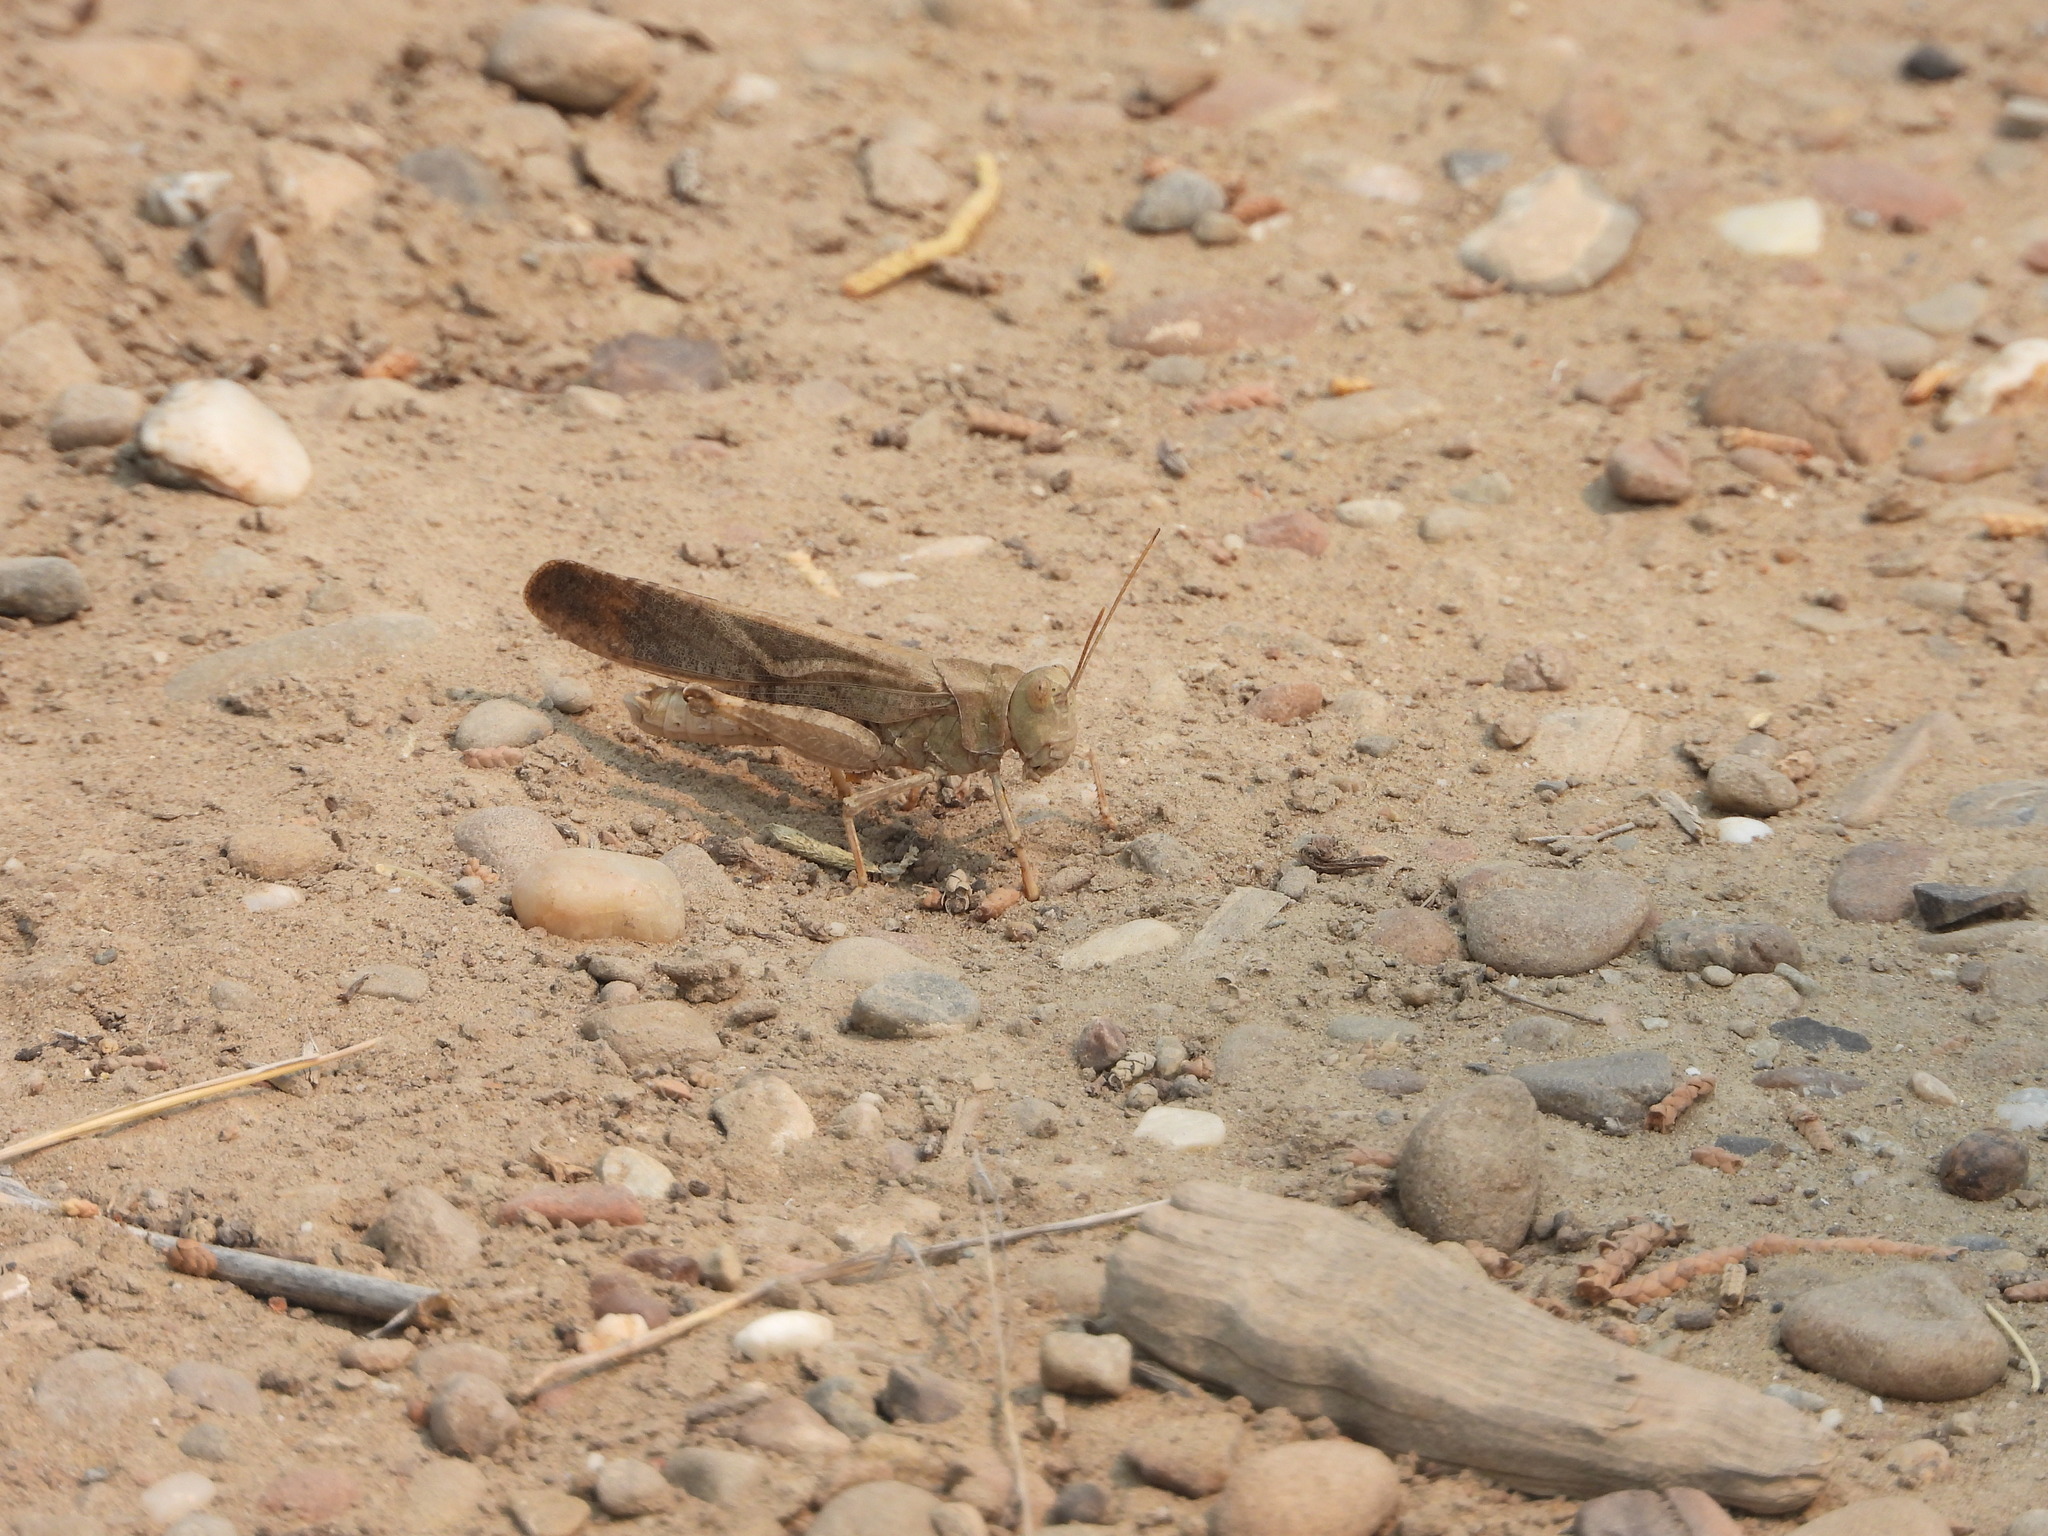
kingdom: Animalia
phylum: Arthropoda
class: Insecta
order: Orthoptera
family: Acrididae
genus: Dissosteira
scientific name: Dissosteira carolina
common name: Carolina grasshopper
